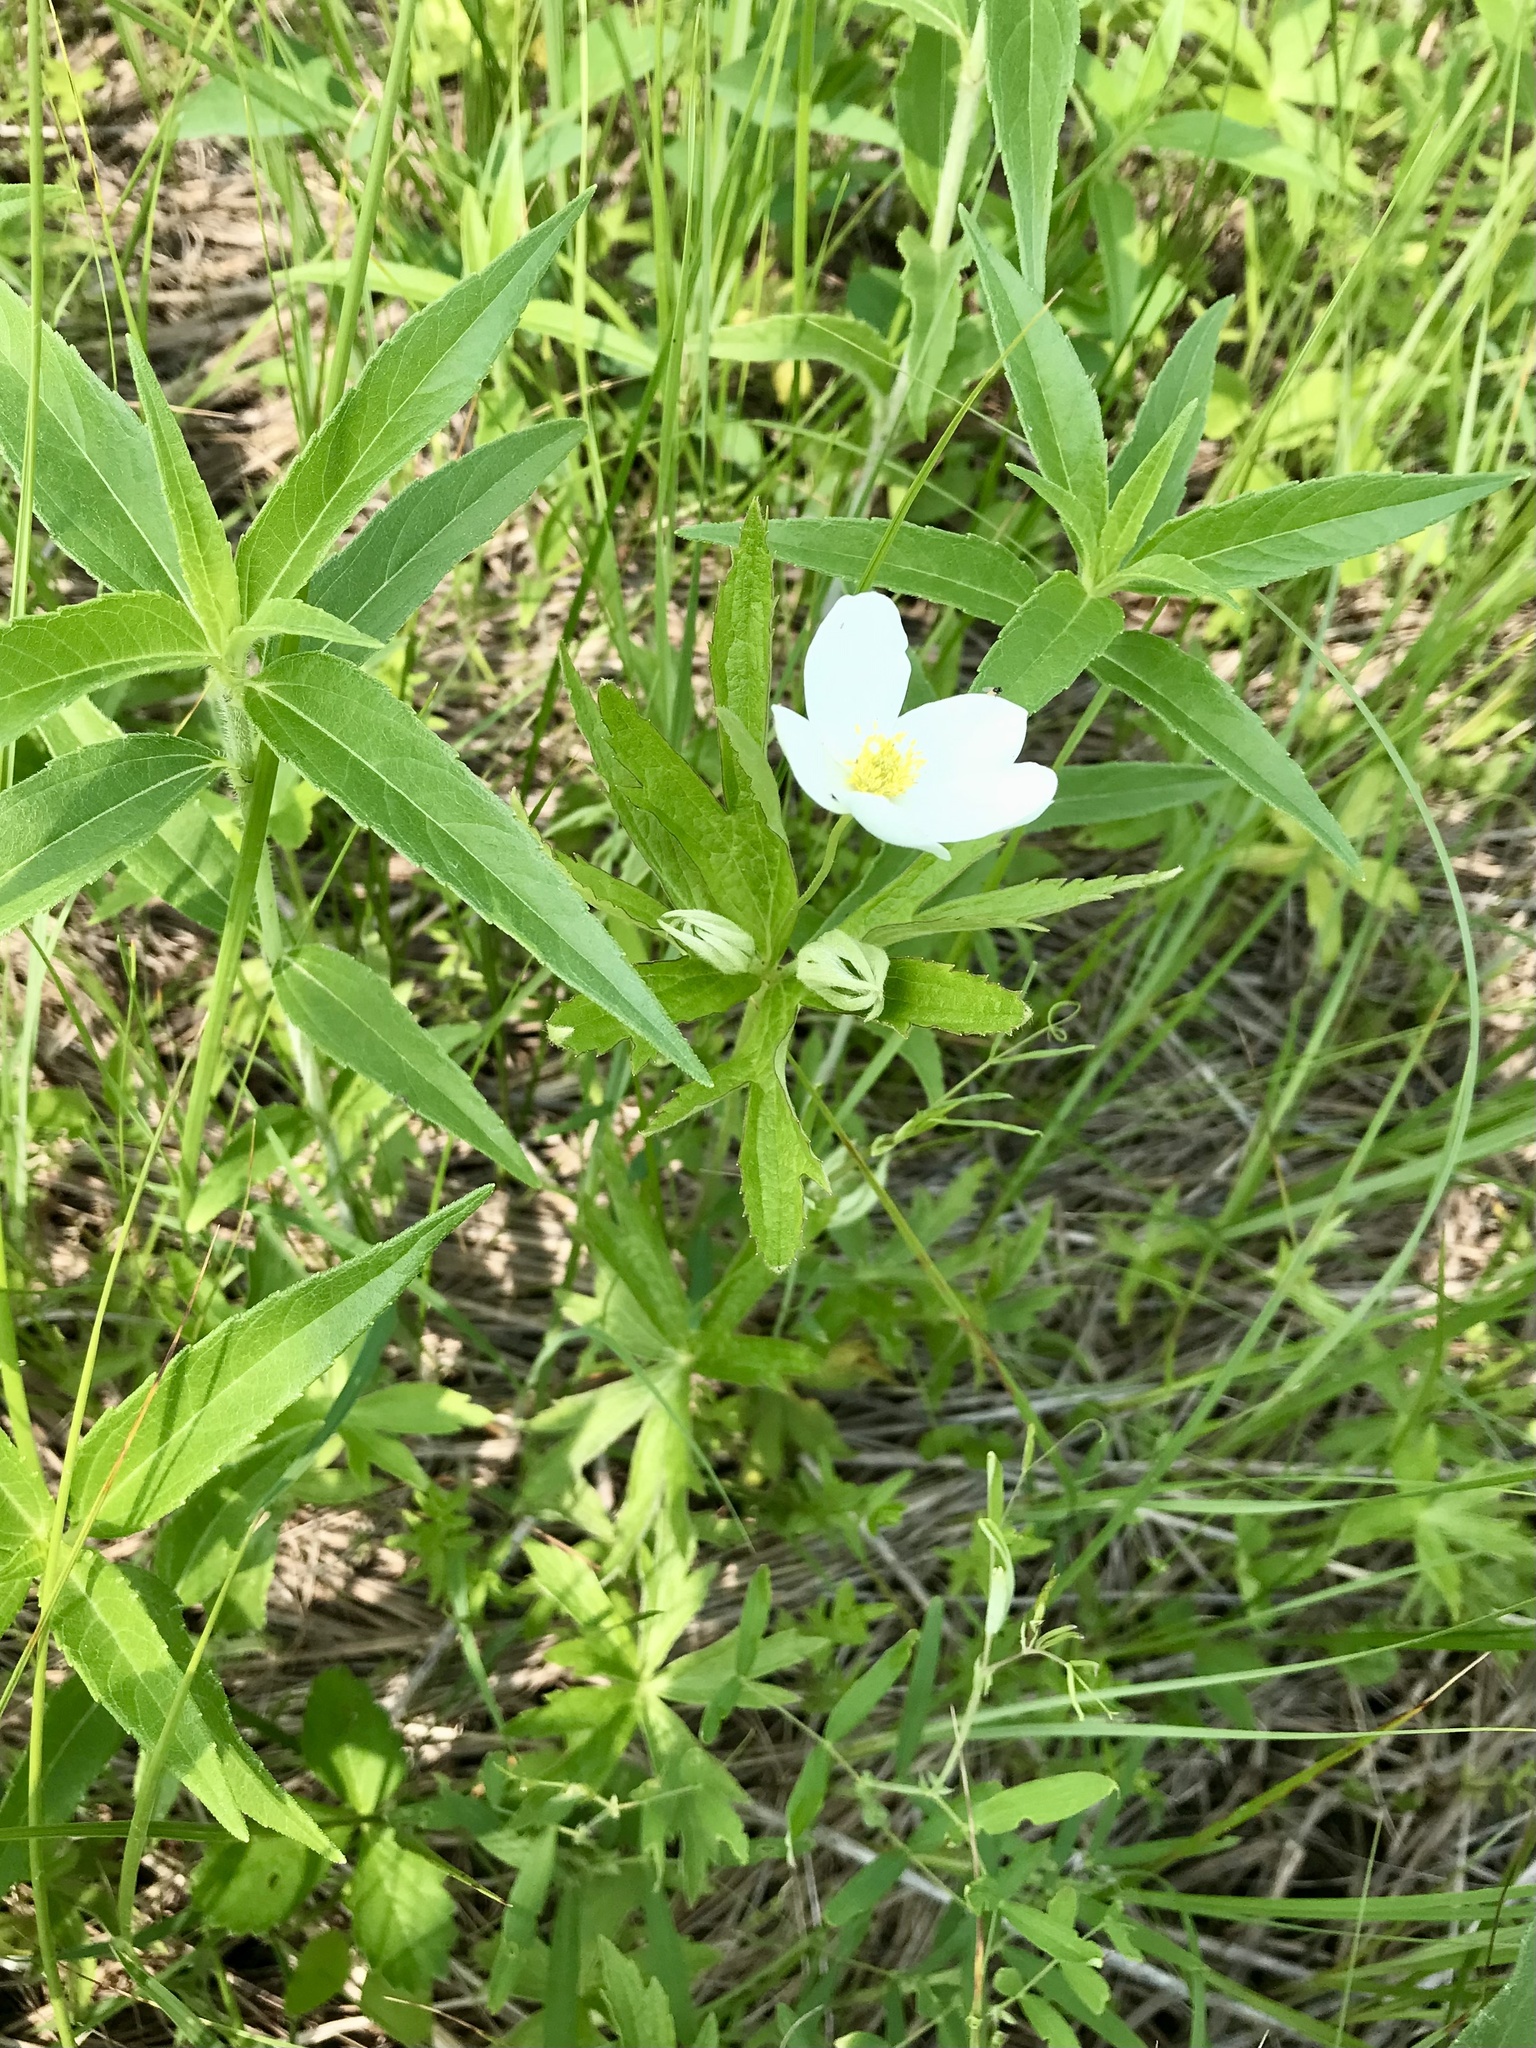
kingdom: Plantae
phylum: Tracheophyta
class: Magnoliopsida
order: Ranunculales
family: Ranunculaceae
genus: Anemonastrum
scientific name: Anemonastrum canadense
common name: Canada anemone
